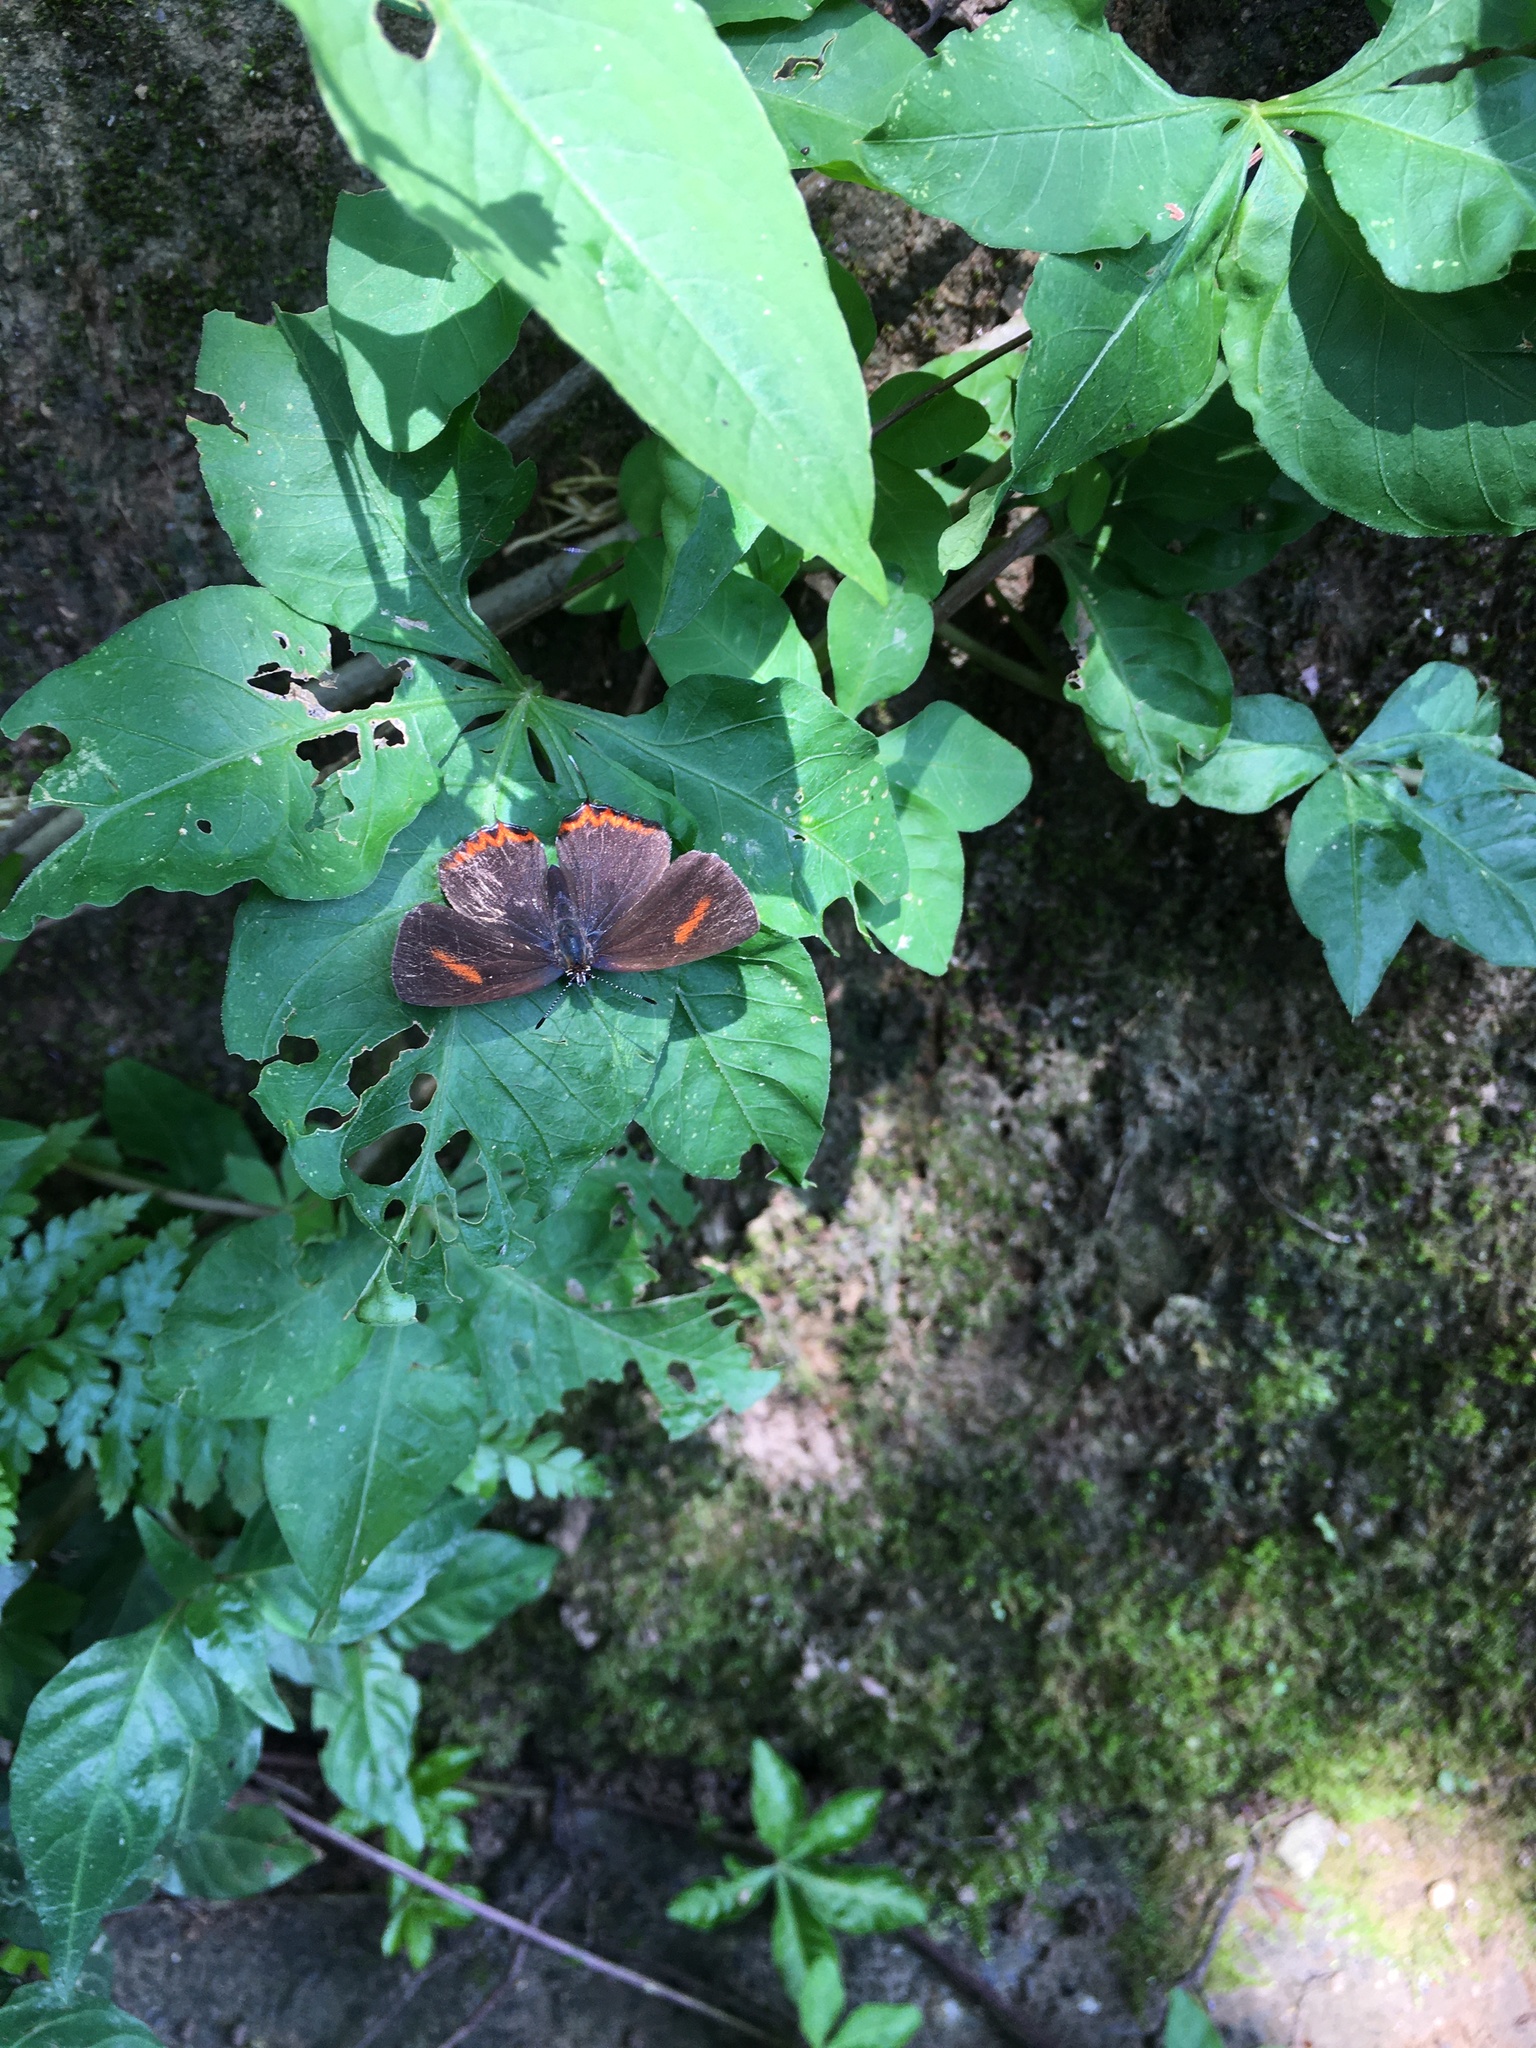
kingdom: Animalia
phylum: Arthropoda
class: Insecta
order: Lepidoptera
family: Lycaenidae
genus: Heliophorus
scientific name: Heliophorus ila
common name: Restricted purple sapphire
